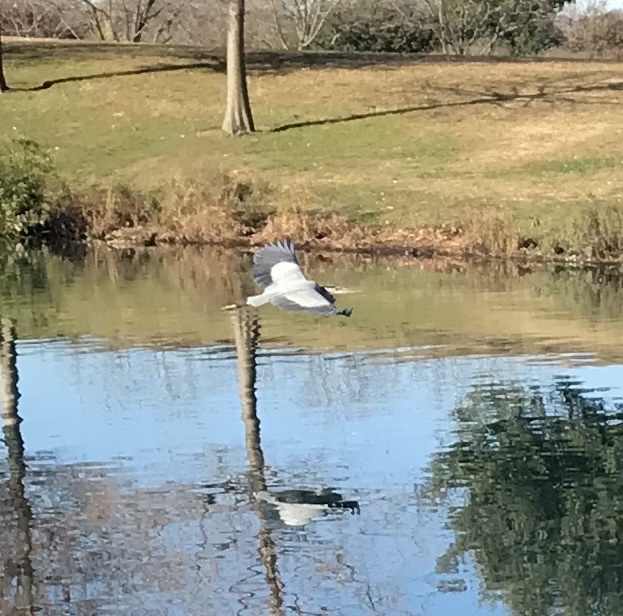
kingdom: Animalia
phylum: Chordata
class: Aves
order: Pelecaniformes
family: Ardeidae
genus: Ardea
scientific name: Ardea herodias
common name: Great blue heron
